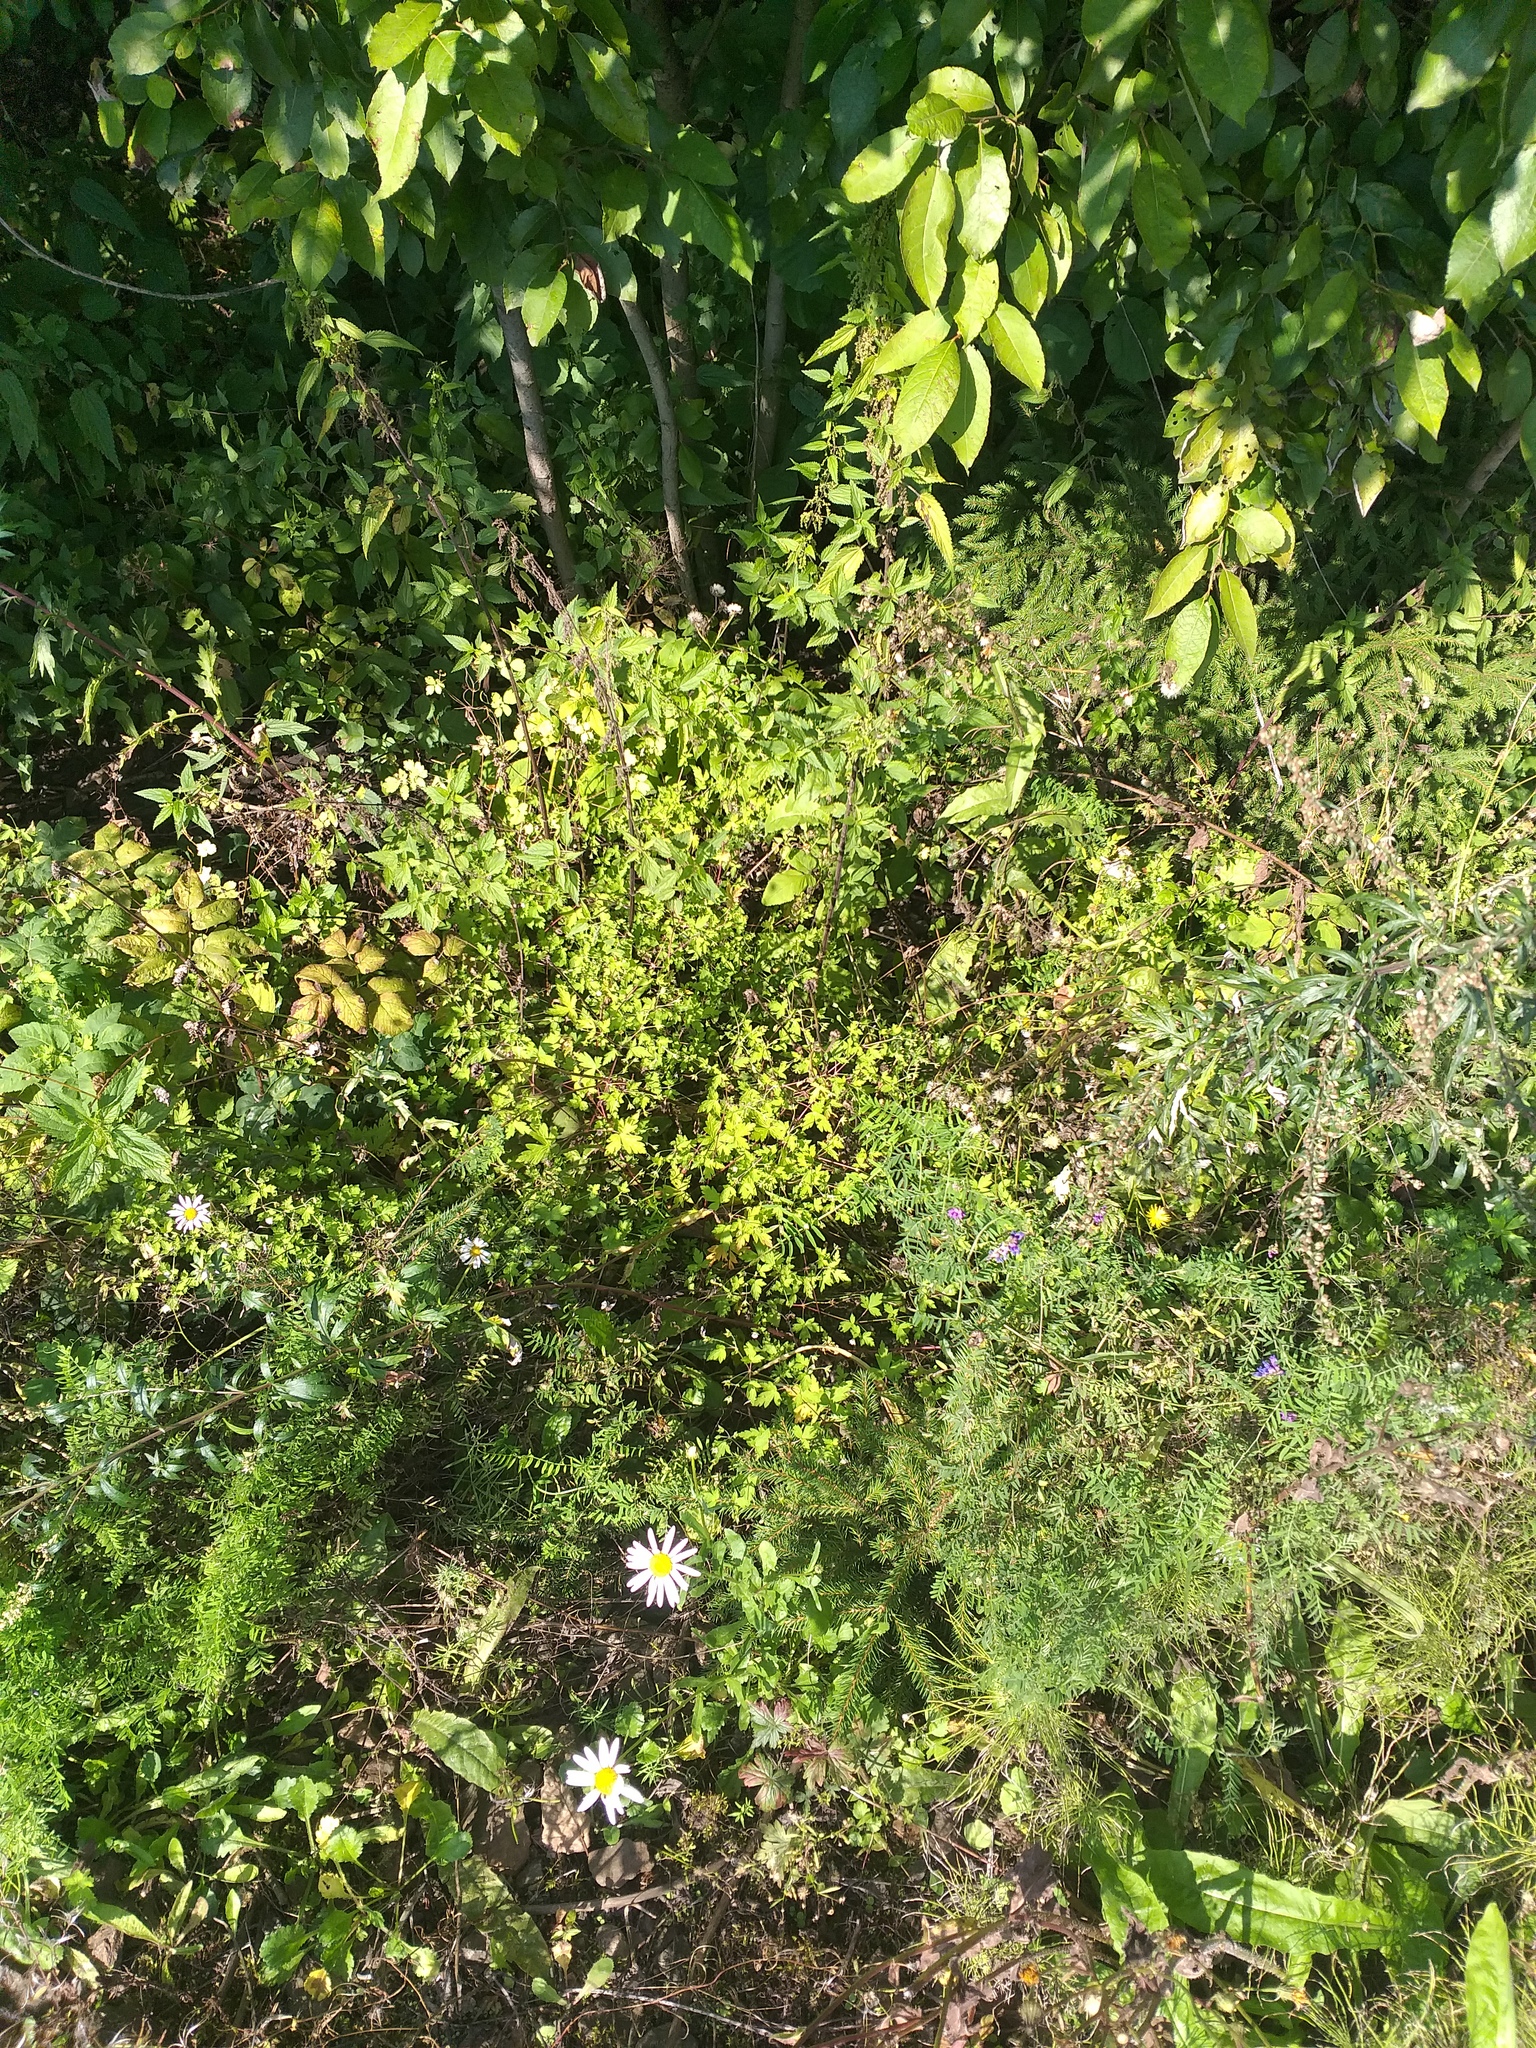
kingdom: Plantae
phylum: Tracheophyta
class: Magnoliopsida
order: Geraniales
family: Geraniaceae
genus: Geranium
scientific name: Geranium sibiricum
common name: Siberian crane's-bill
